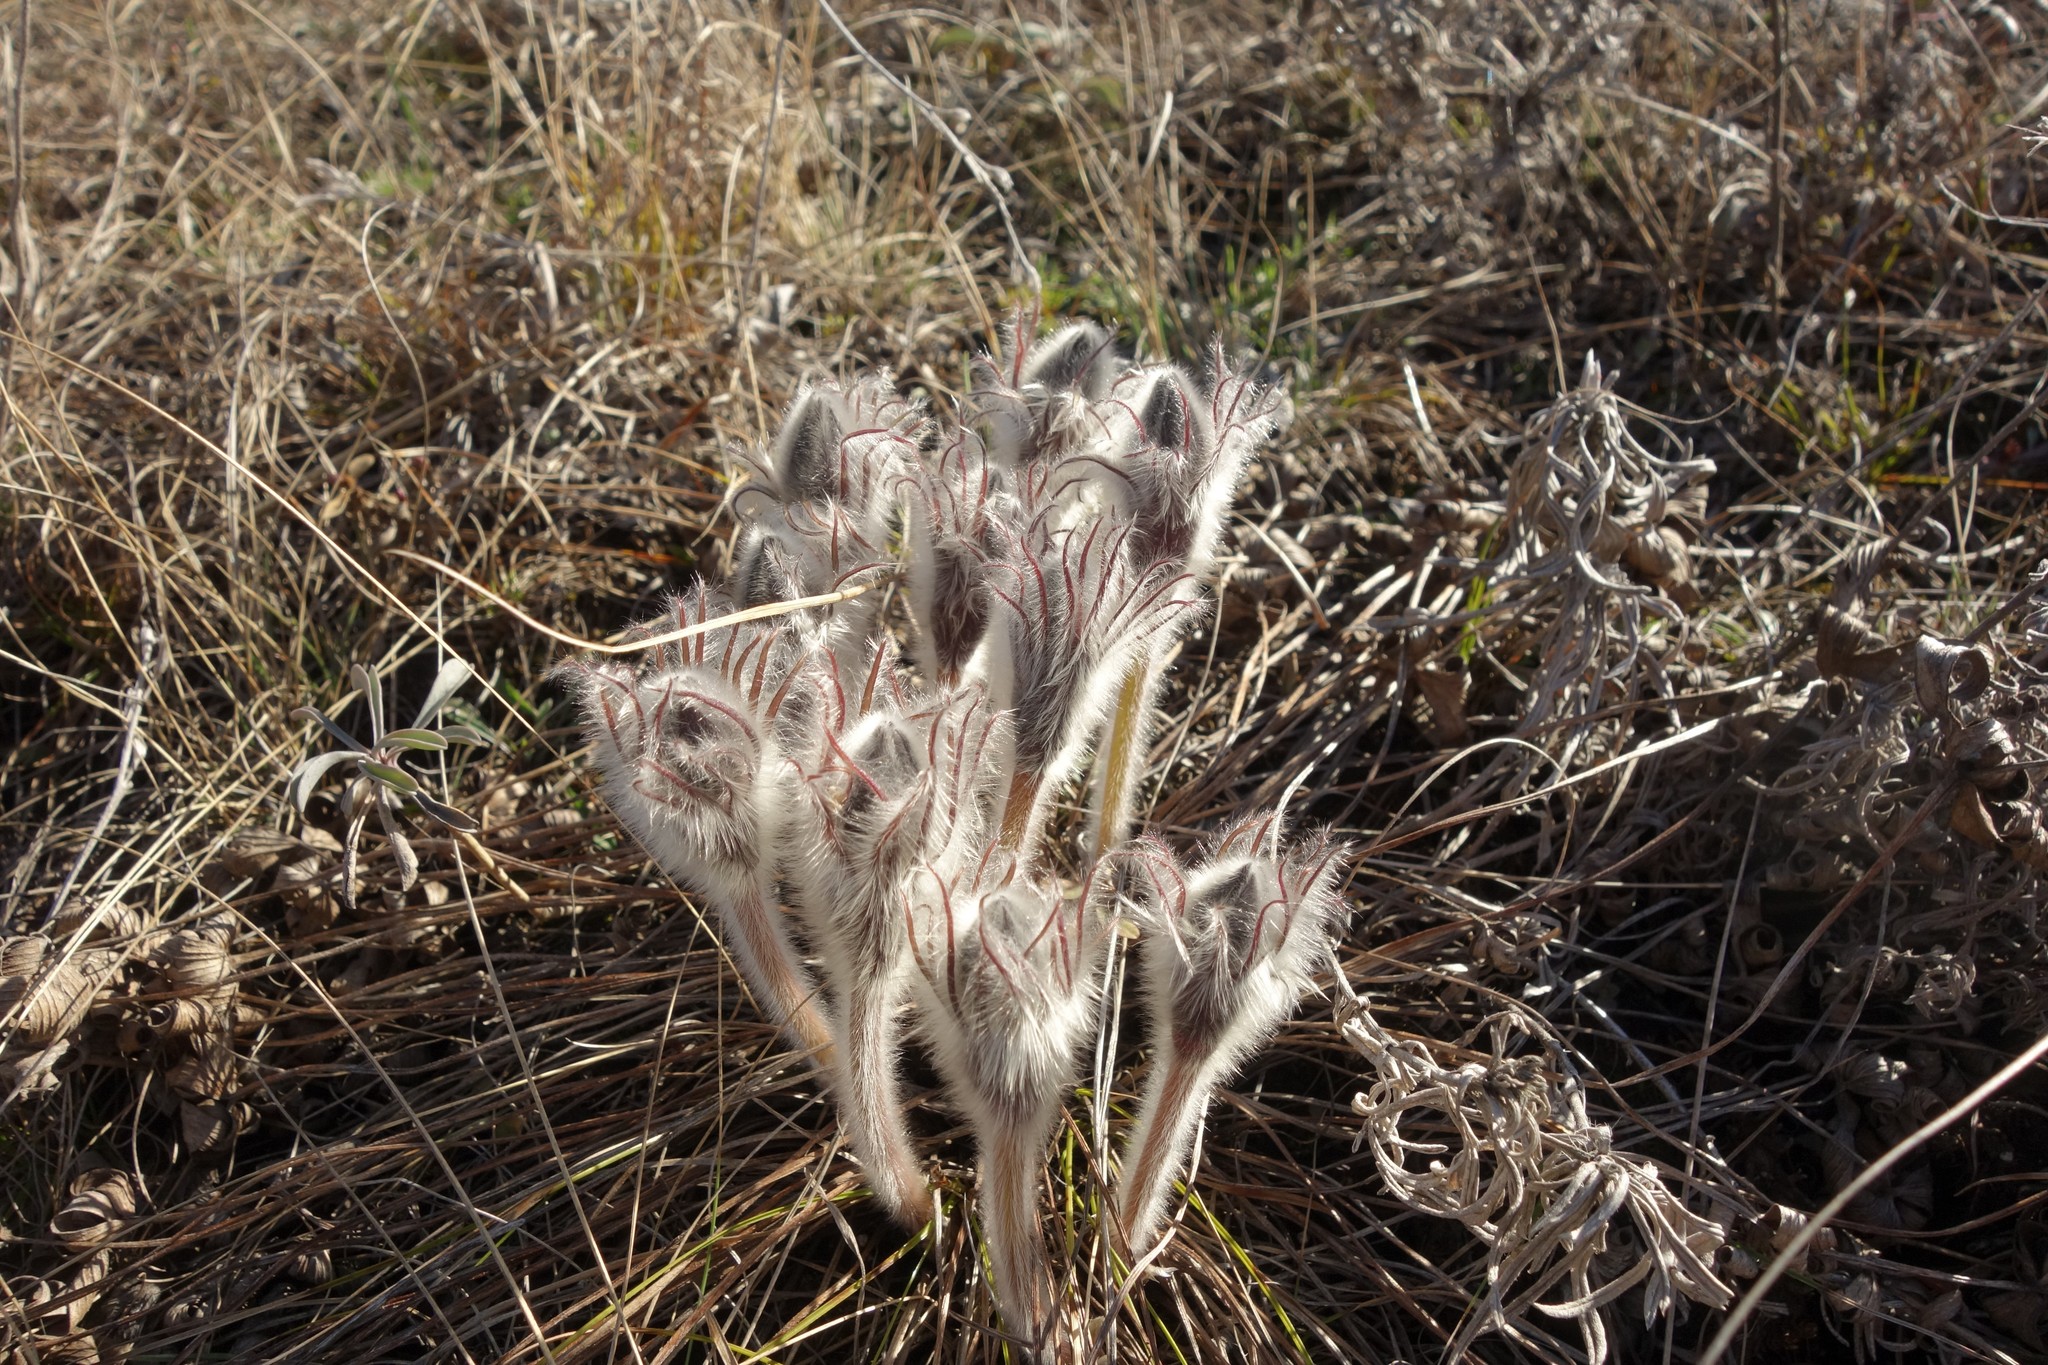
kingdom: Plantae
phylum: Tracheophyta
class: Magnoliopsida
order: Ranunculales
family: Ranunculaceae
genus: Pulsatilla
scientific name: Pulsatilla patens
